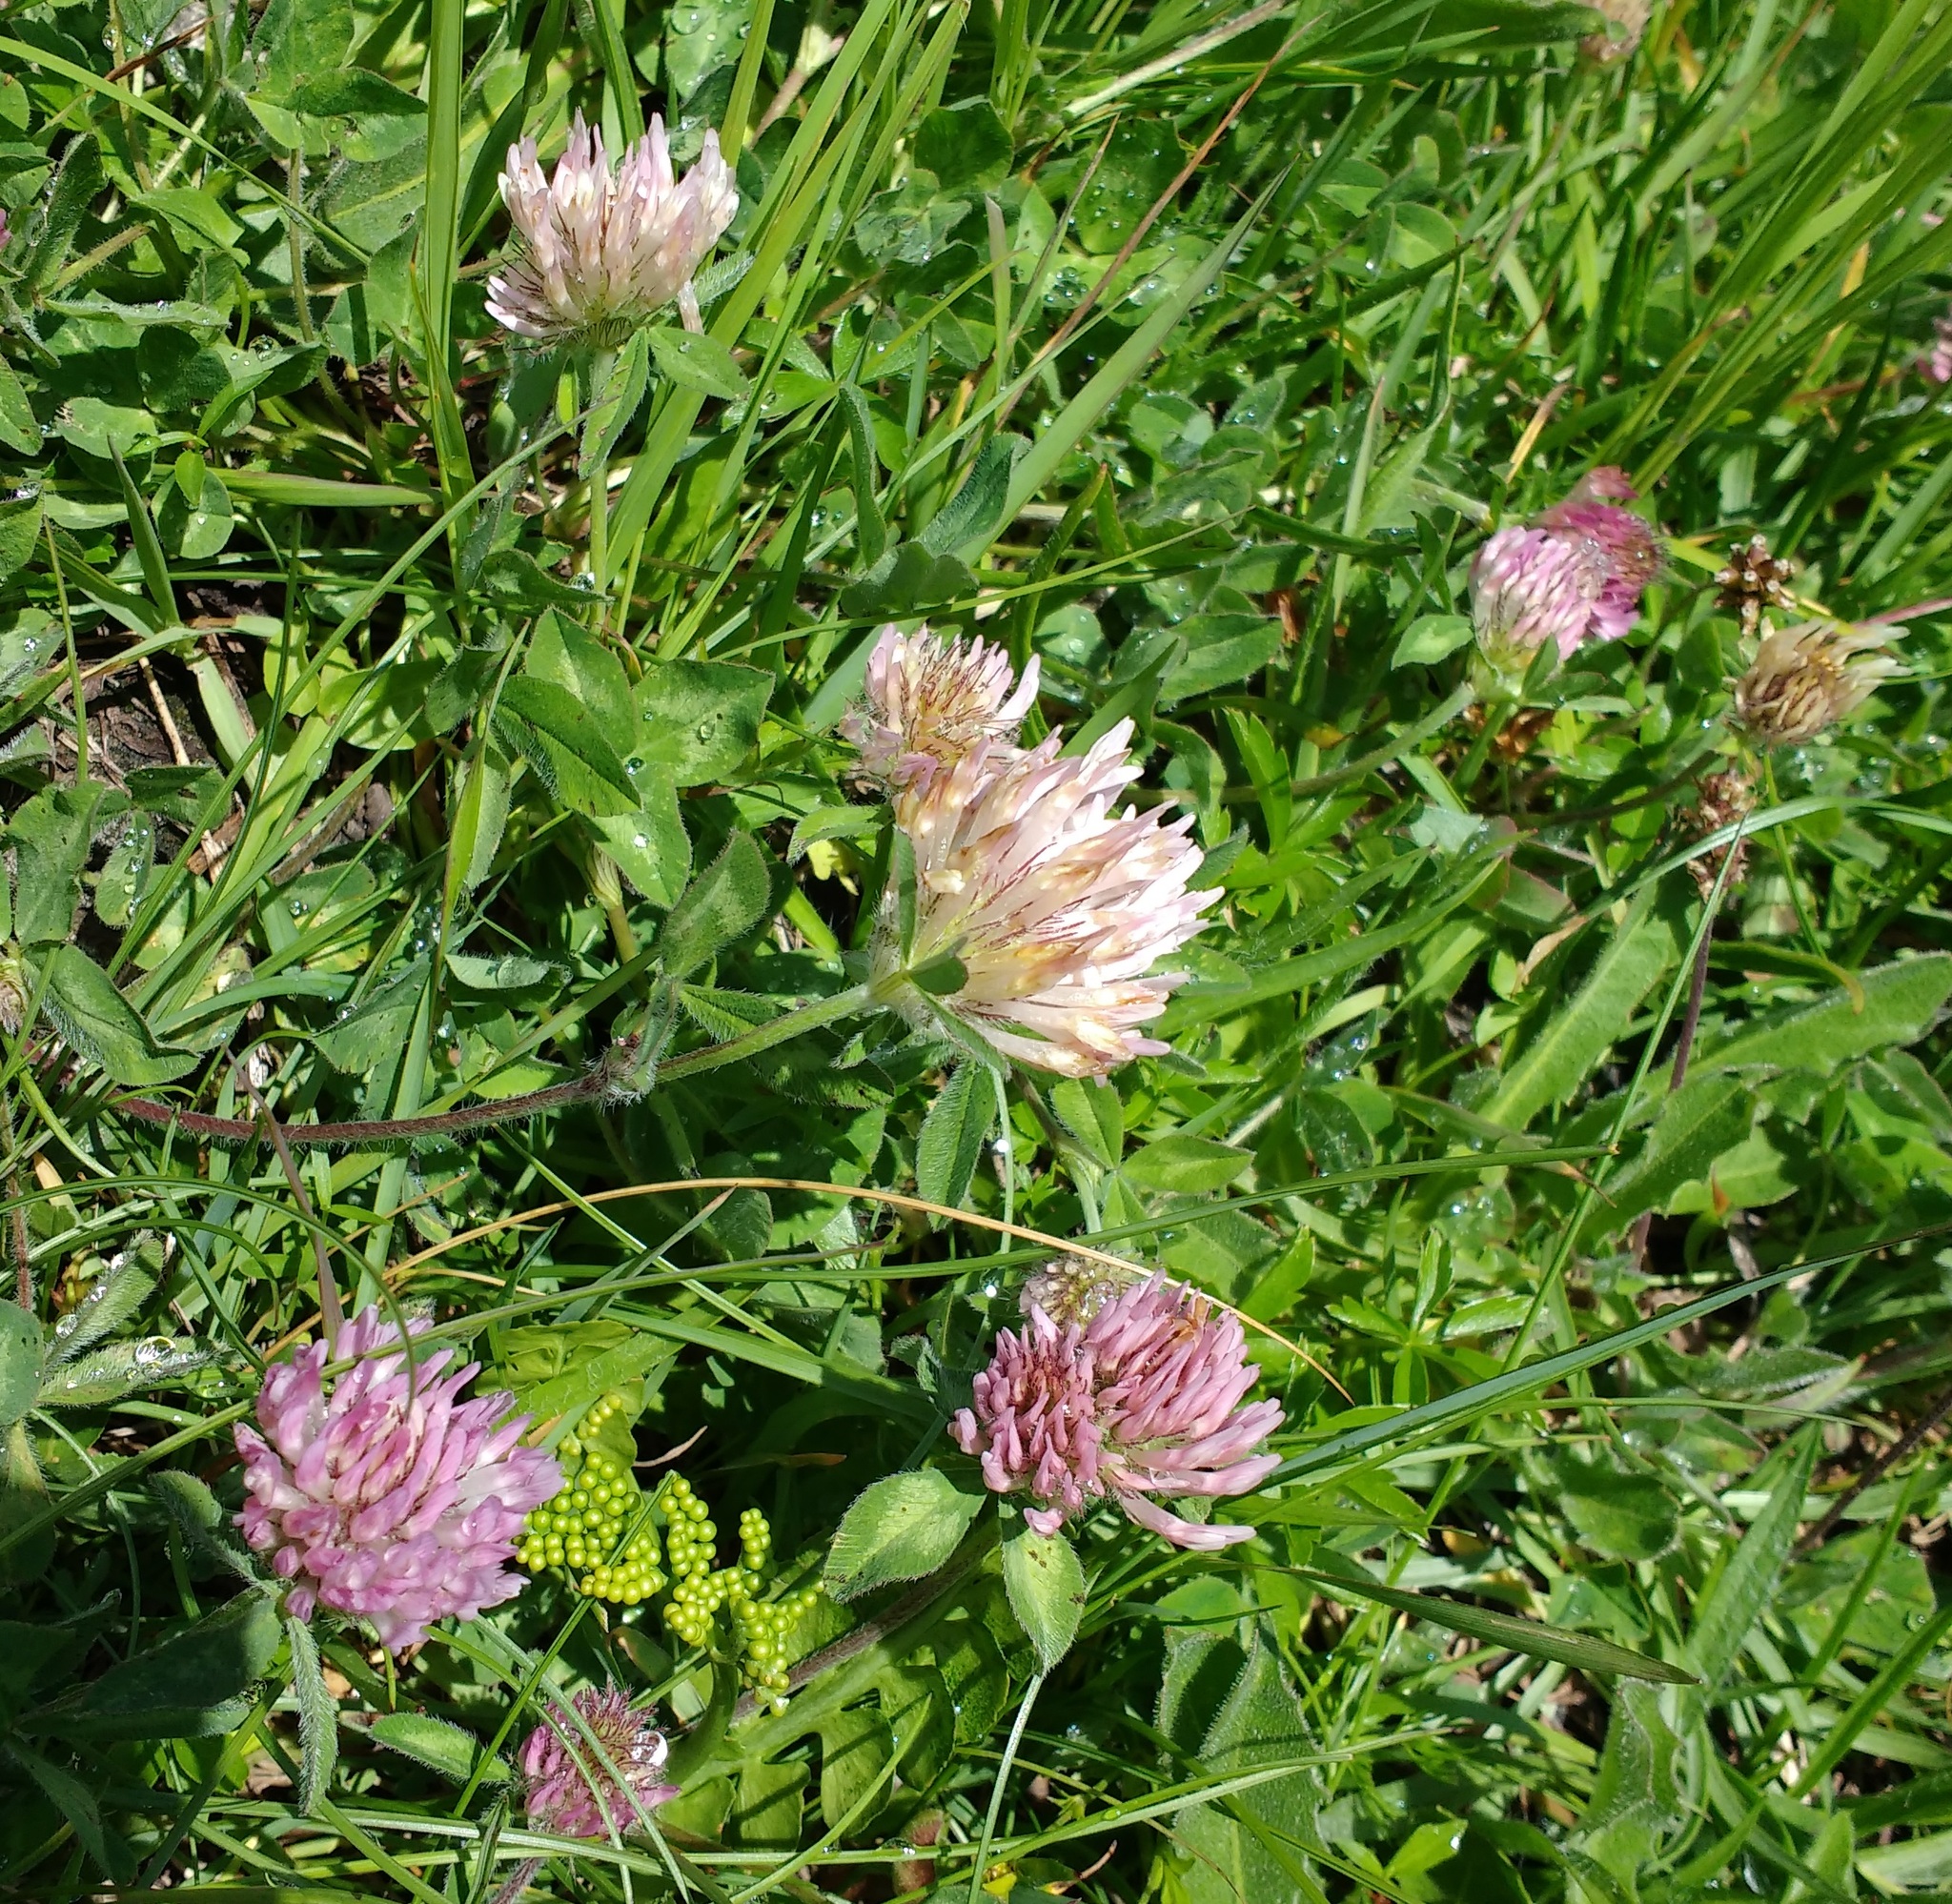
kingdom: Plantae
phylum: Tracheophyta
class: Magnoliopsida
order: Fabales
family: Fabaceae
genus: Trifolium
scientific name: Trifolium pratense
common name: Red clover
